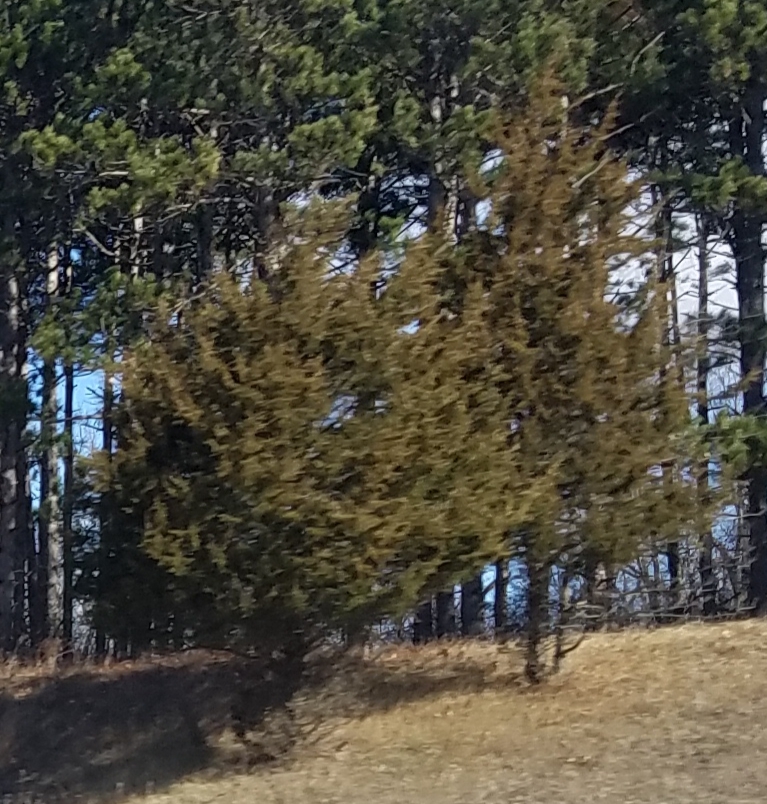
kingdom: Plantae
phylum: Tracheophyta
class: Pinopsida
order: Pinales
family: Cupressaceae
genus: Juniperus
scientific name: Juniperus virginiana
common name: Red juniper
